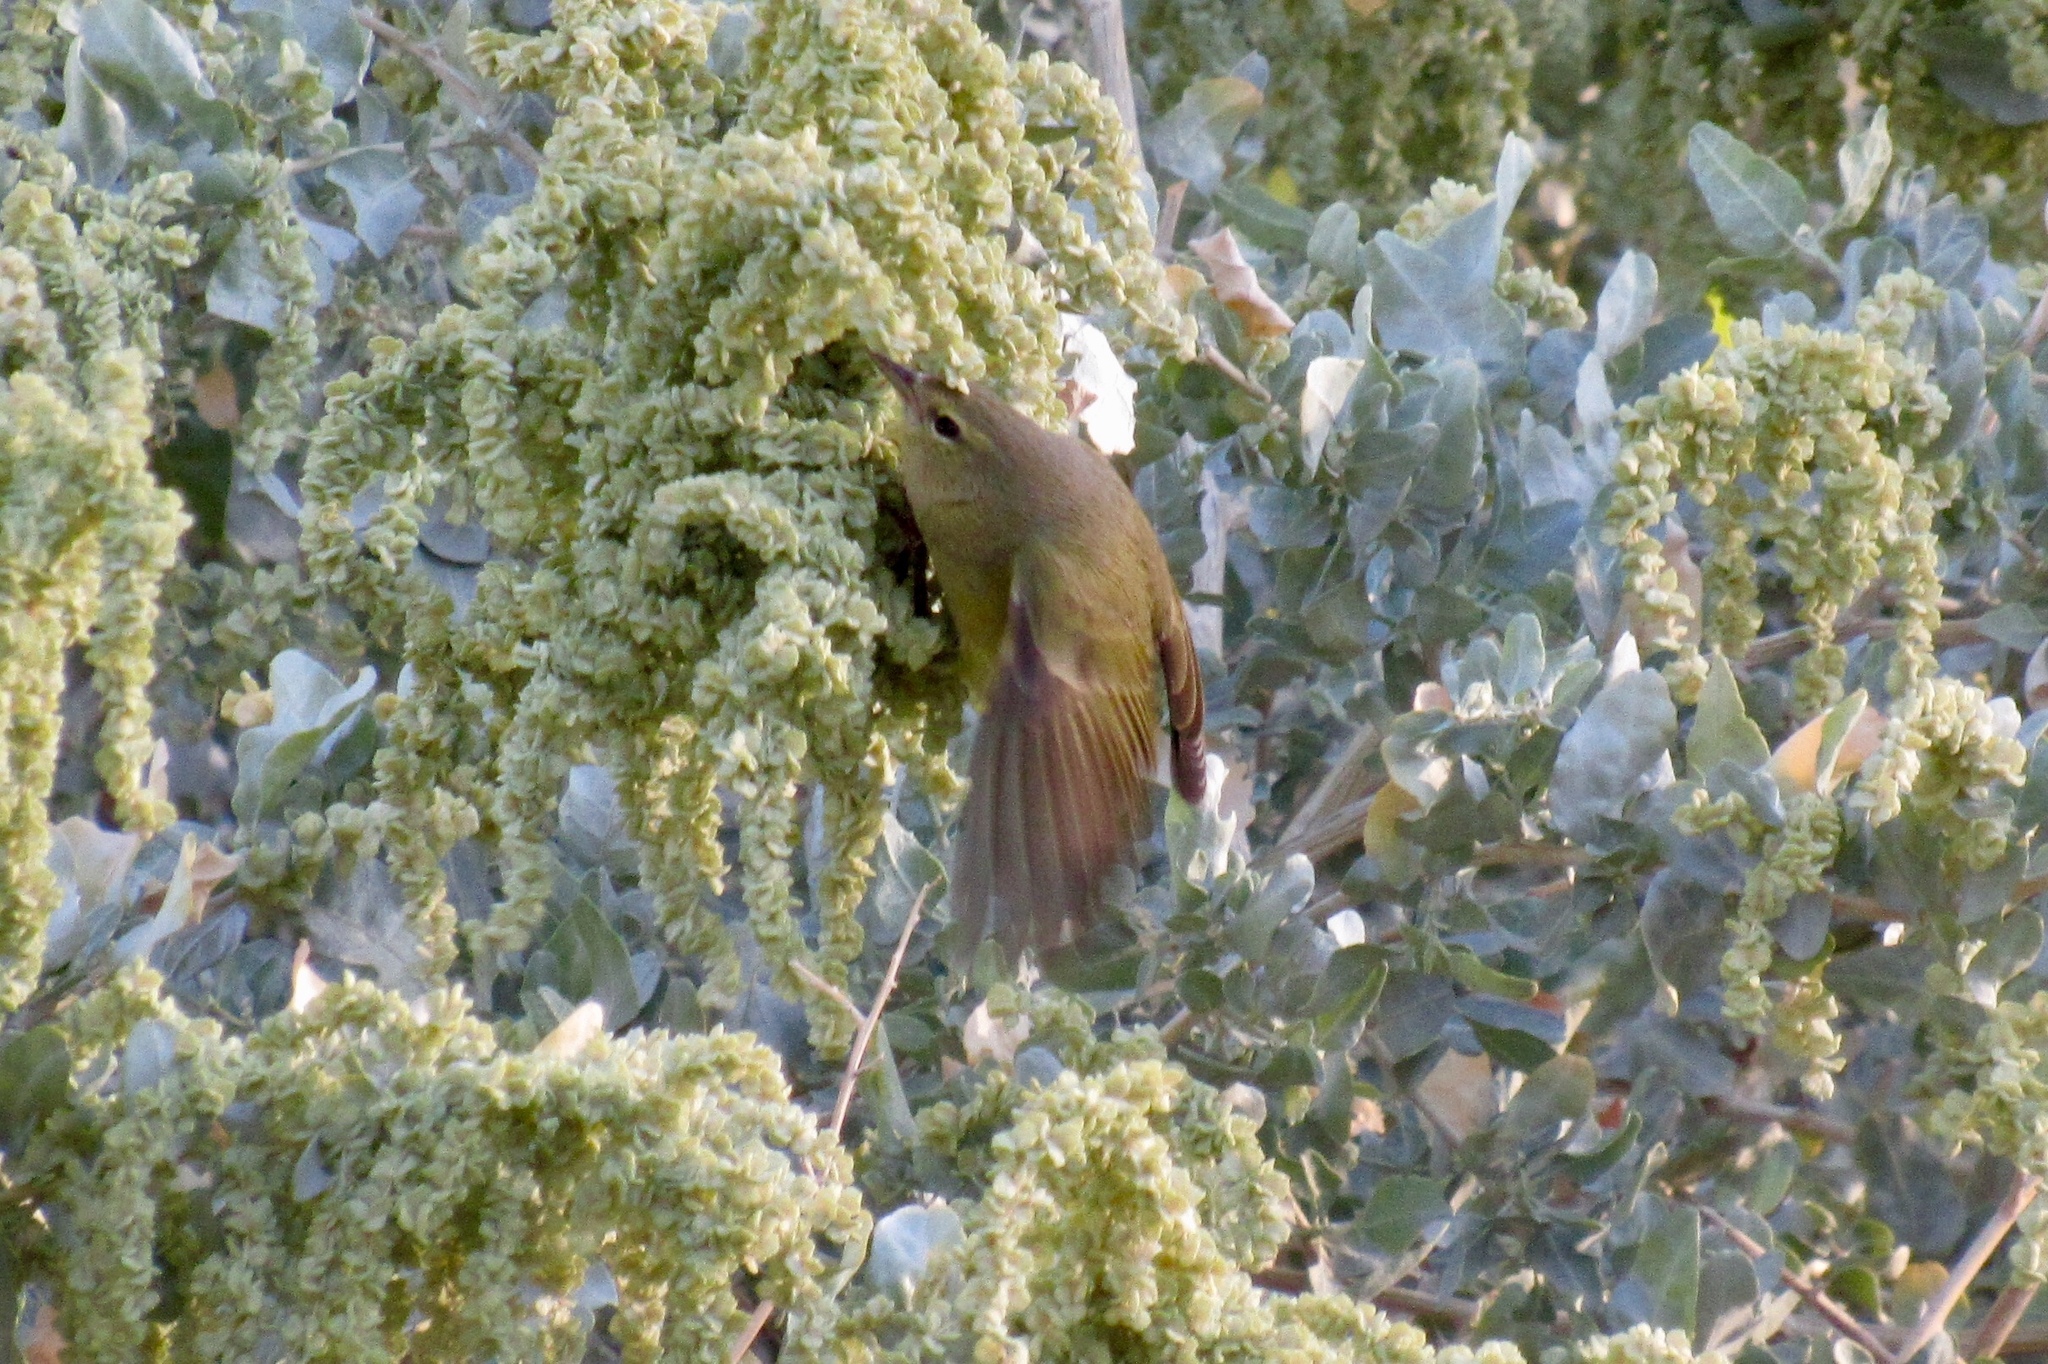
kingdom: Animalia
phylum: Chordata
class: Aves
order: Passeriformes
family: Parulidae
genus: Leiothlypis
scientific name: Leiothlypis celata
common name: Orange-crowned warbler
